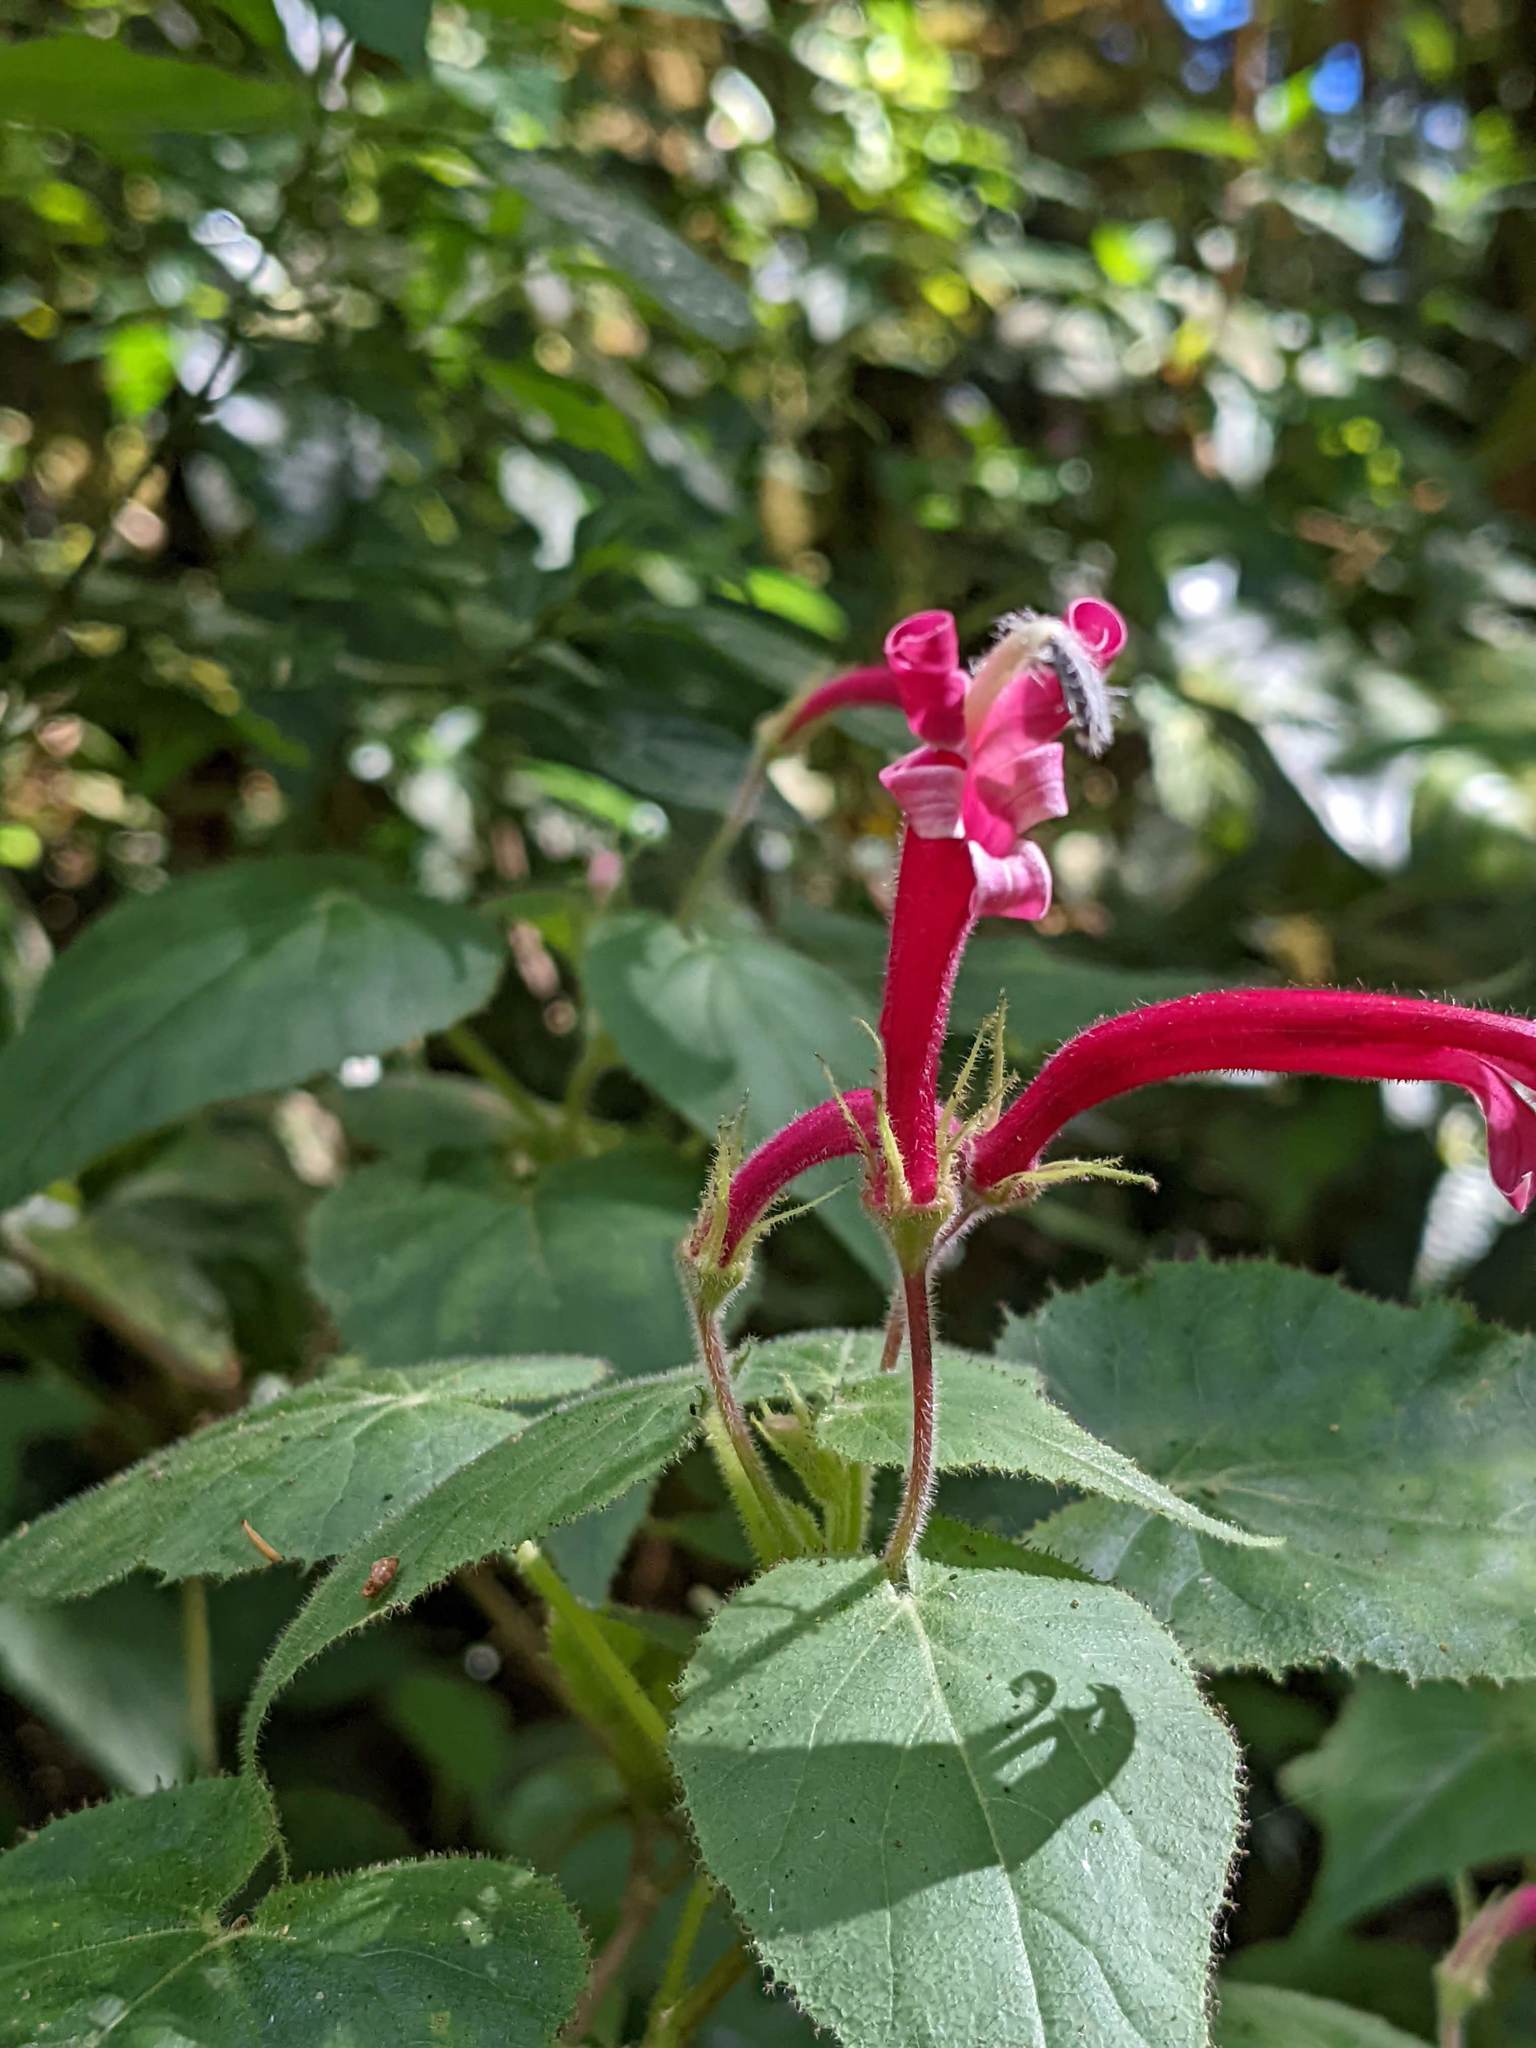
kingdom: Plantae
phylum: Tracheophyta
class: Magnoliopsida
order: Asterales
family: Campanulaceae
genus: Siphocampylus
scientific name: Siphocampylus nematosepalus
